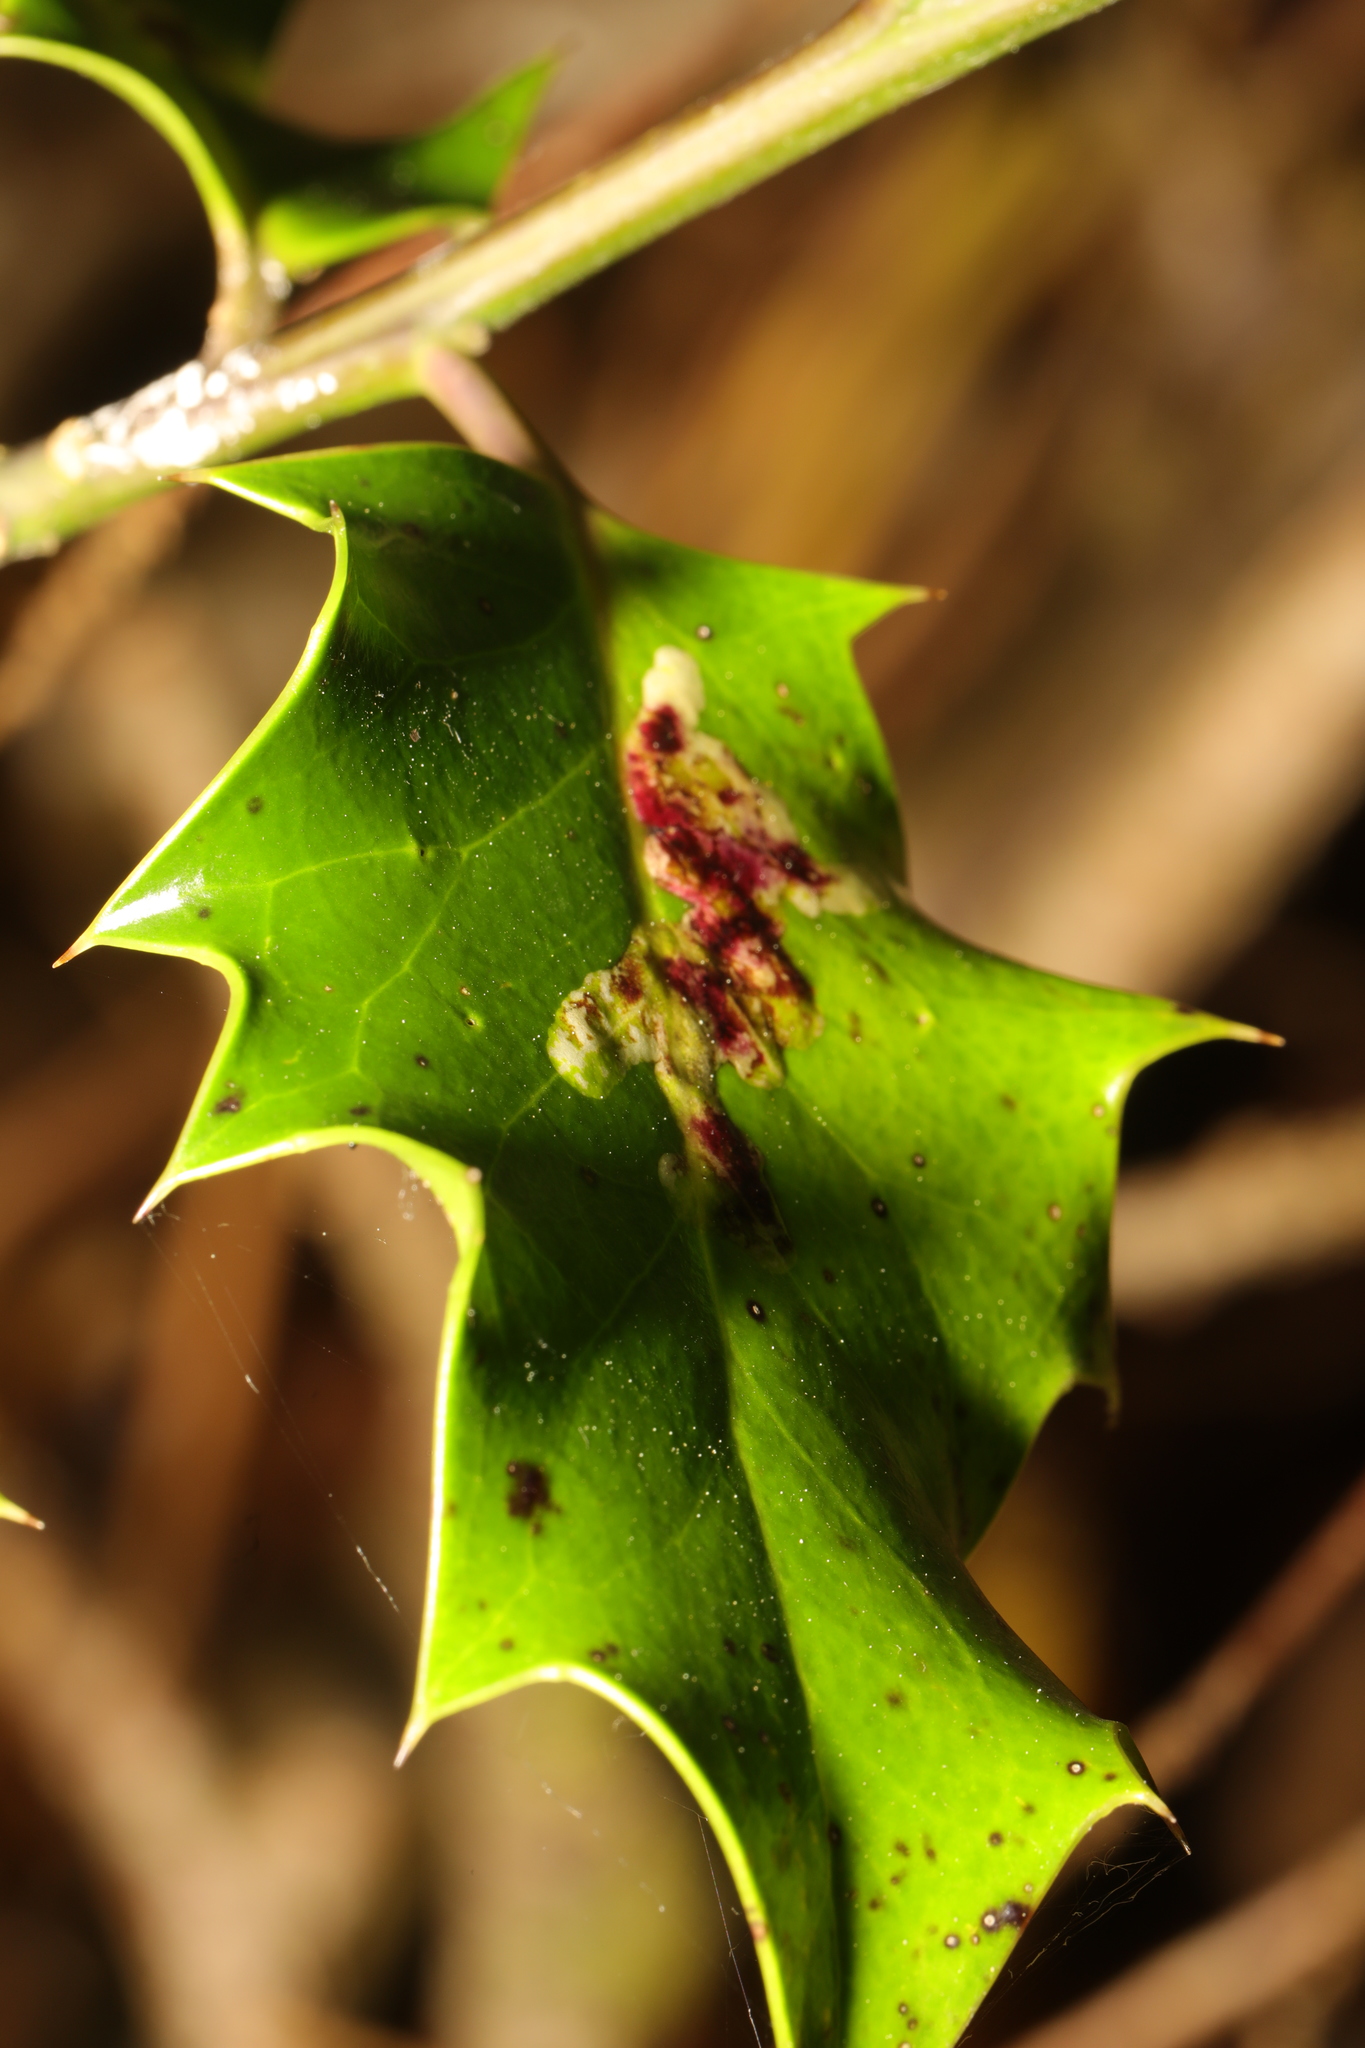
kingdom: Animalia
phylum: Arthropoda
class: Insecta
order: Diptera
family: Agromyzidae
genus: Phytomyza
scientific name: Phytomyza ilicis
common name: Holly leafminer
